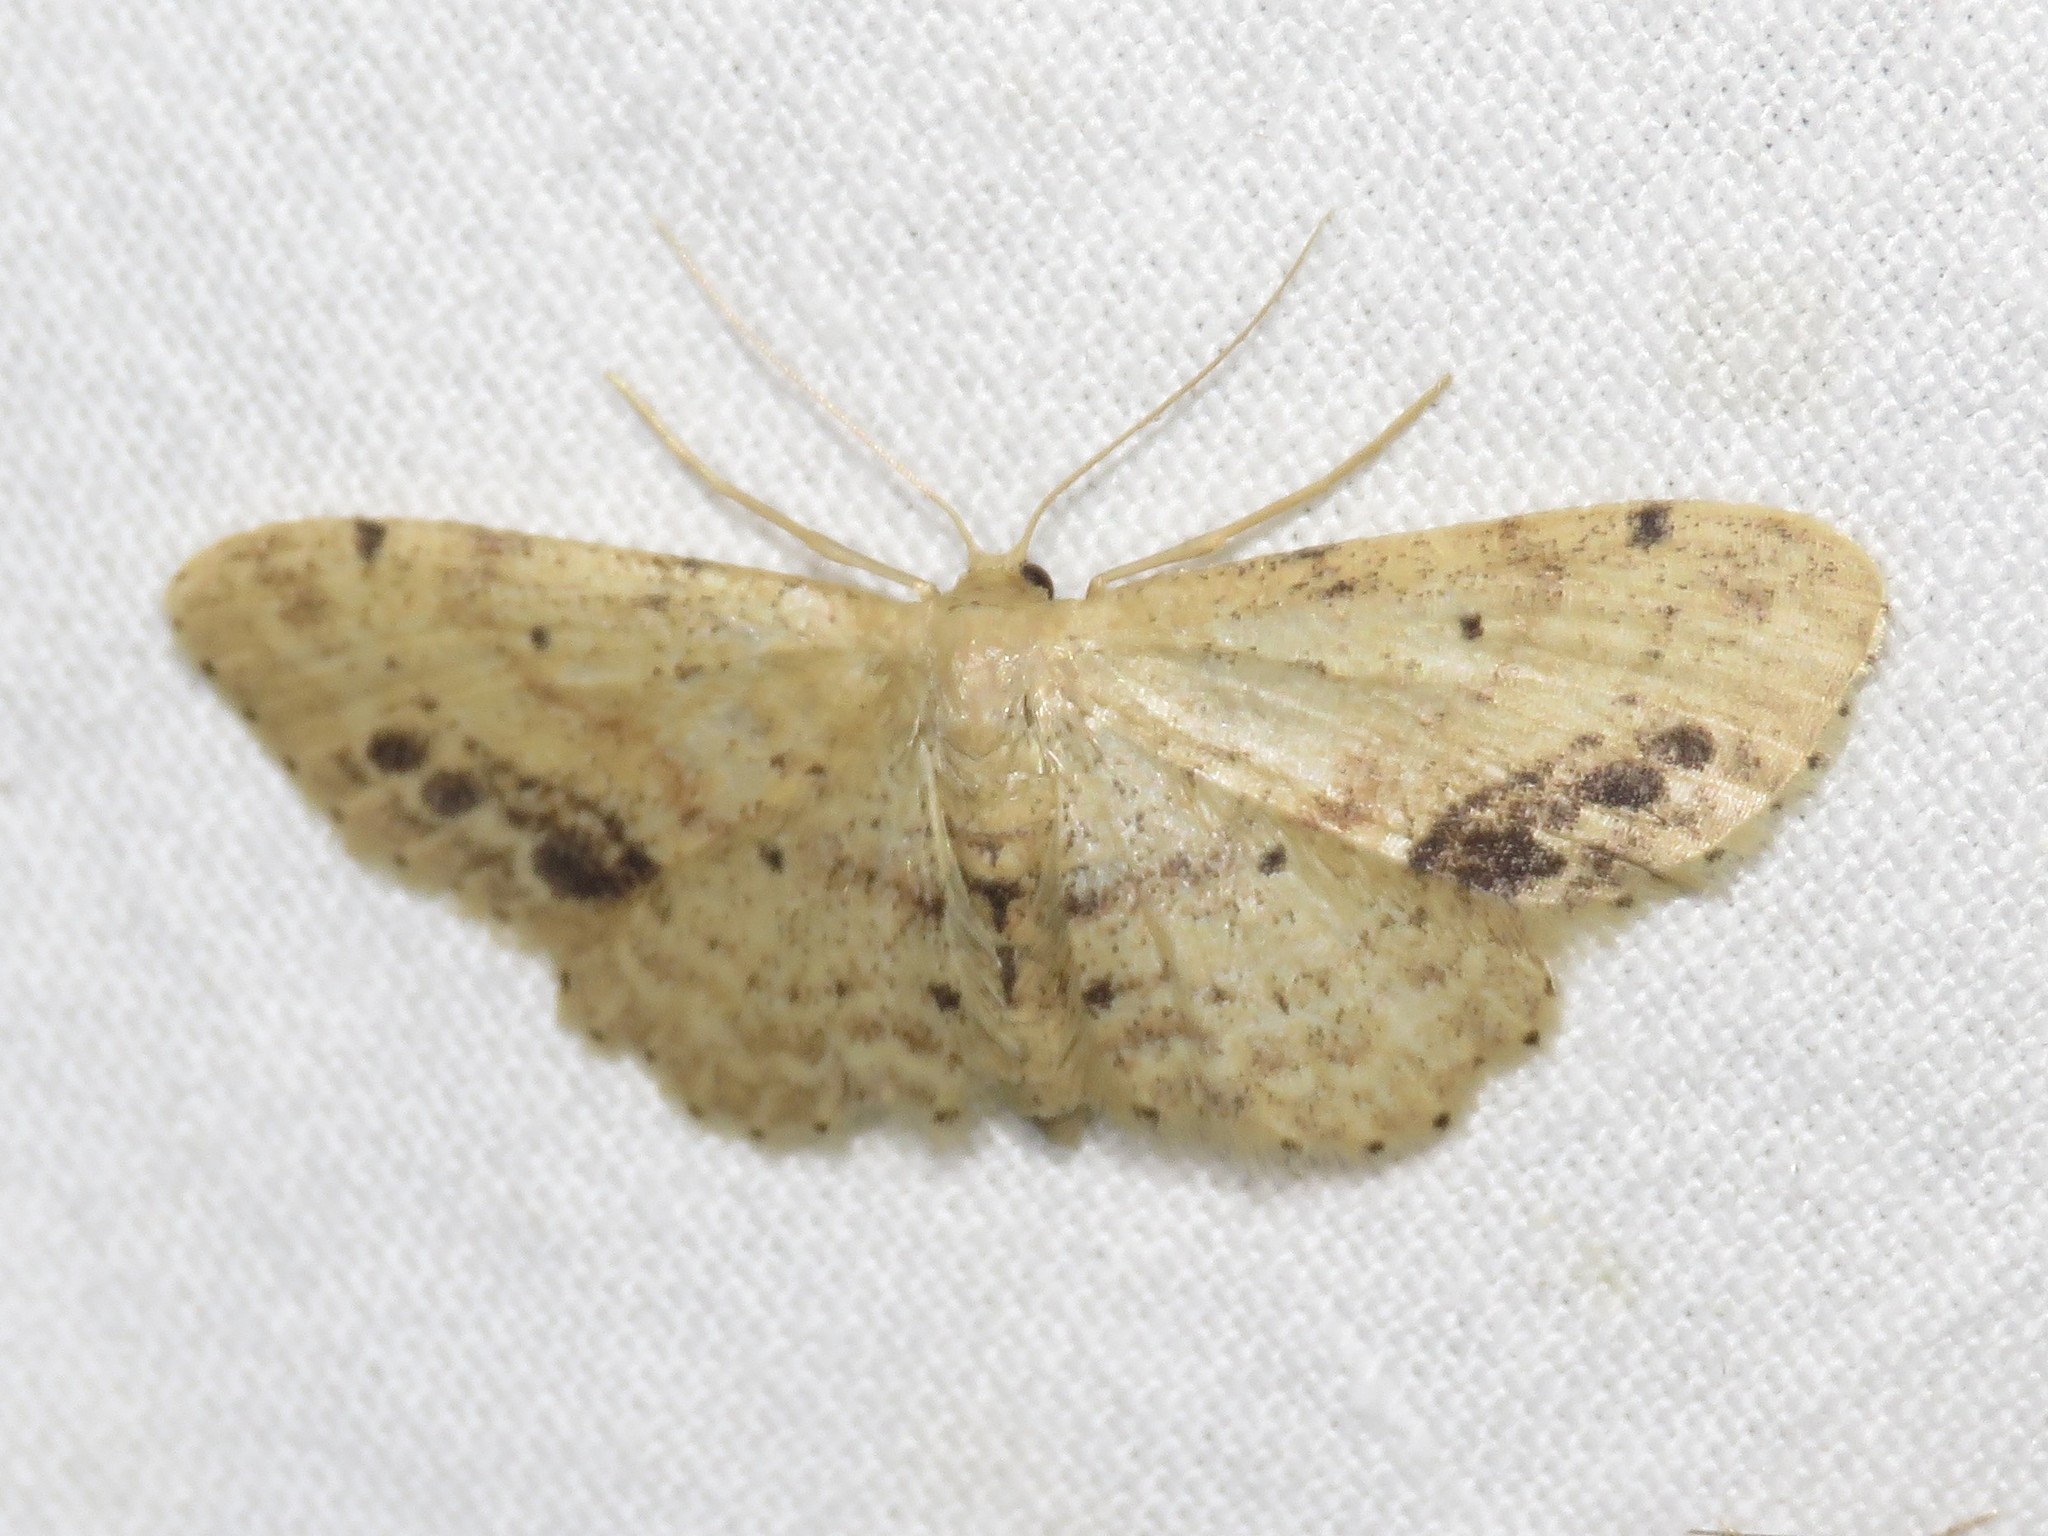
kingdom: Animalia
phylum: Arthropoda
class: Insecta
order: Lepidoptera
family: Geometridae
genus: Idaea
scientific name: Idaea dimidiata
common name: Single-dotted wave
